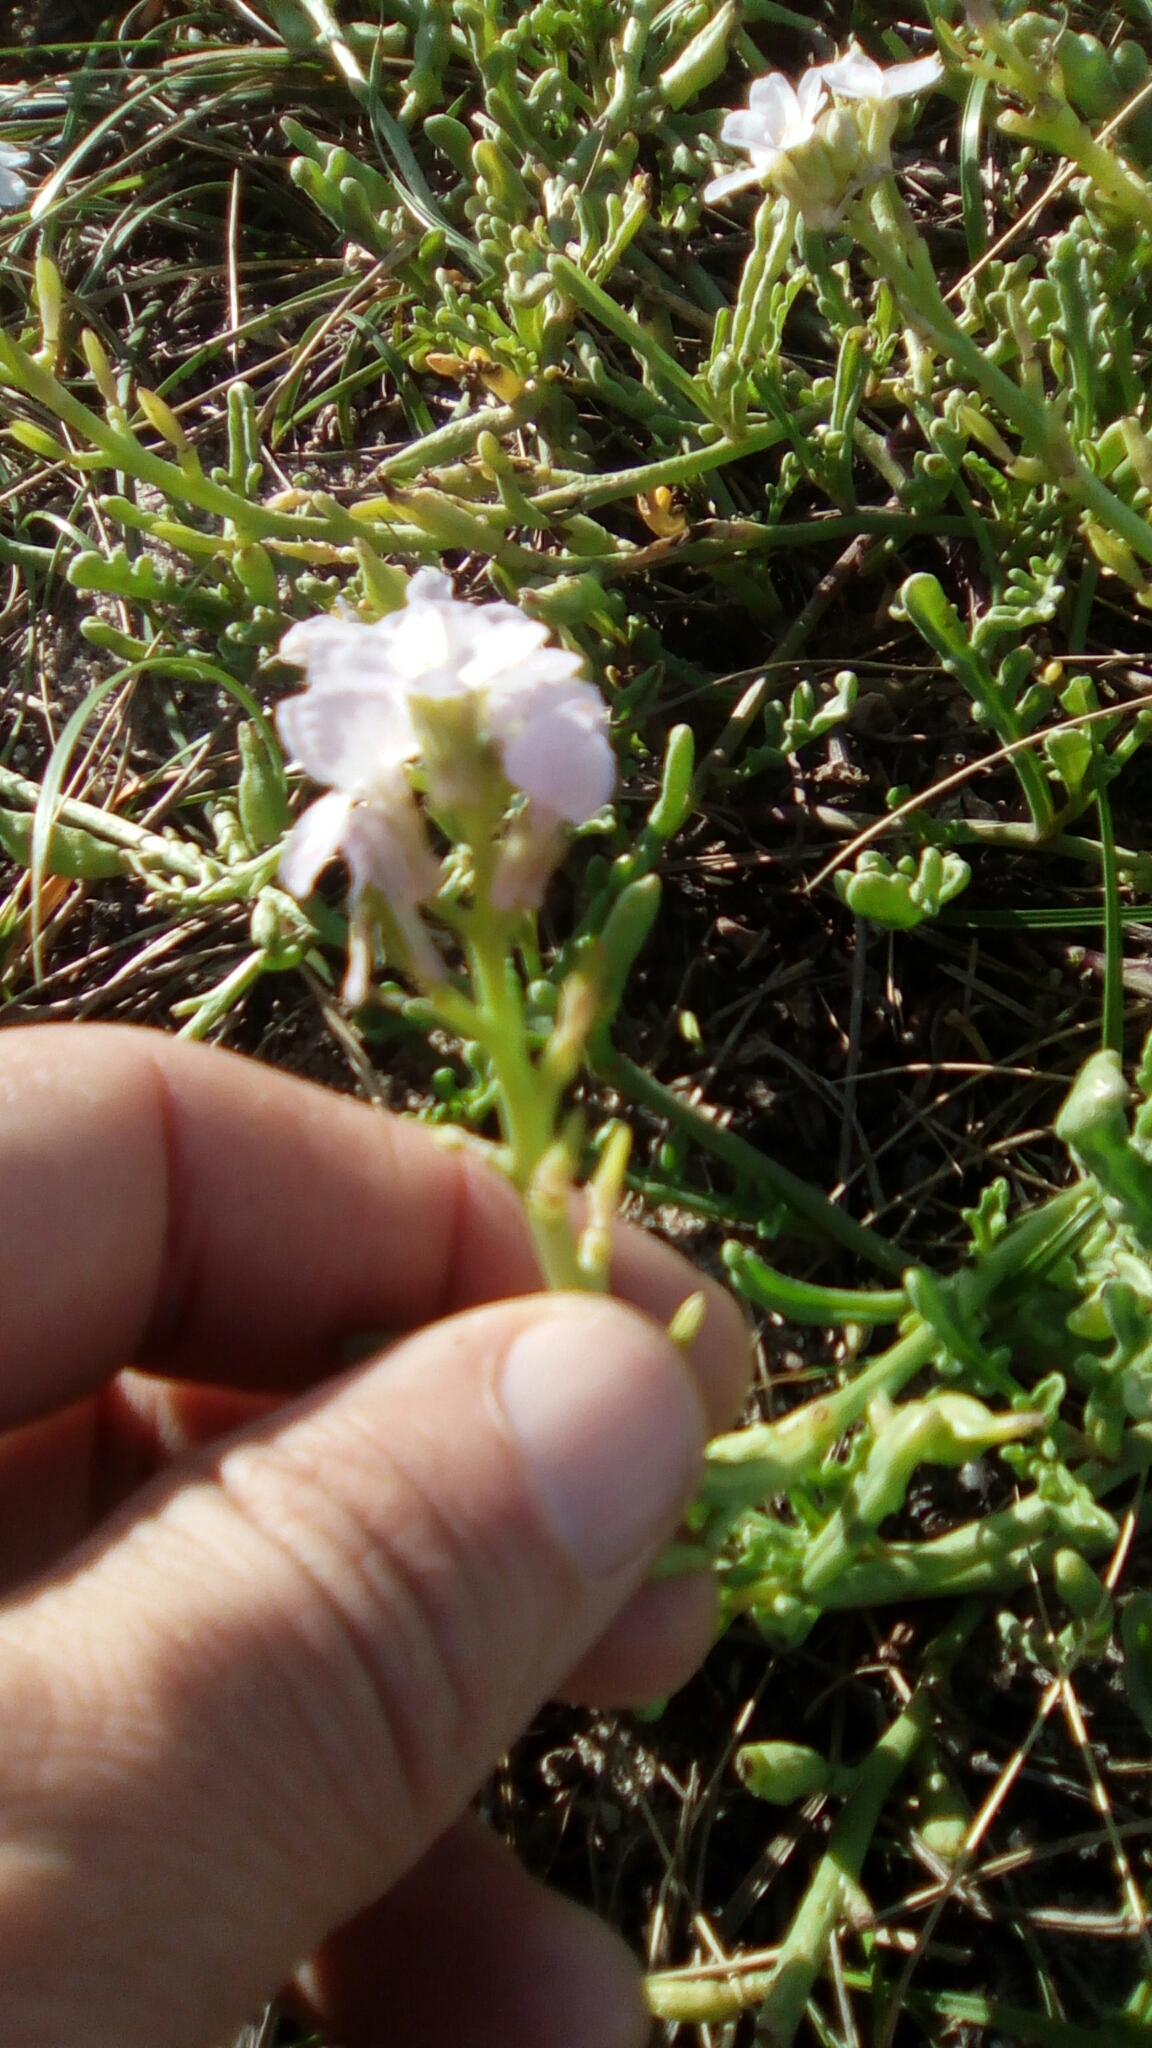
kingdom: Plantae
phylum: Tracheophyta
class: Magnoliopsida
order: Brassicales
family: Brassicaceae
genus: Cakile
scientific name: Cakile maritima
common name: Sea rocket
